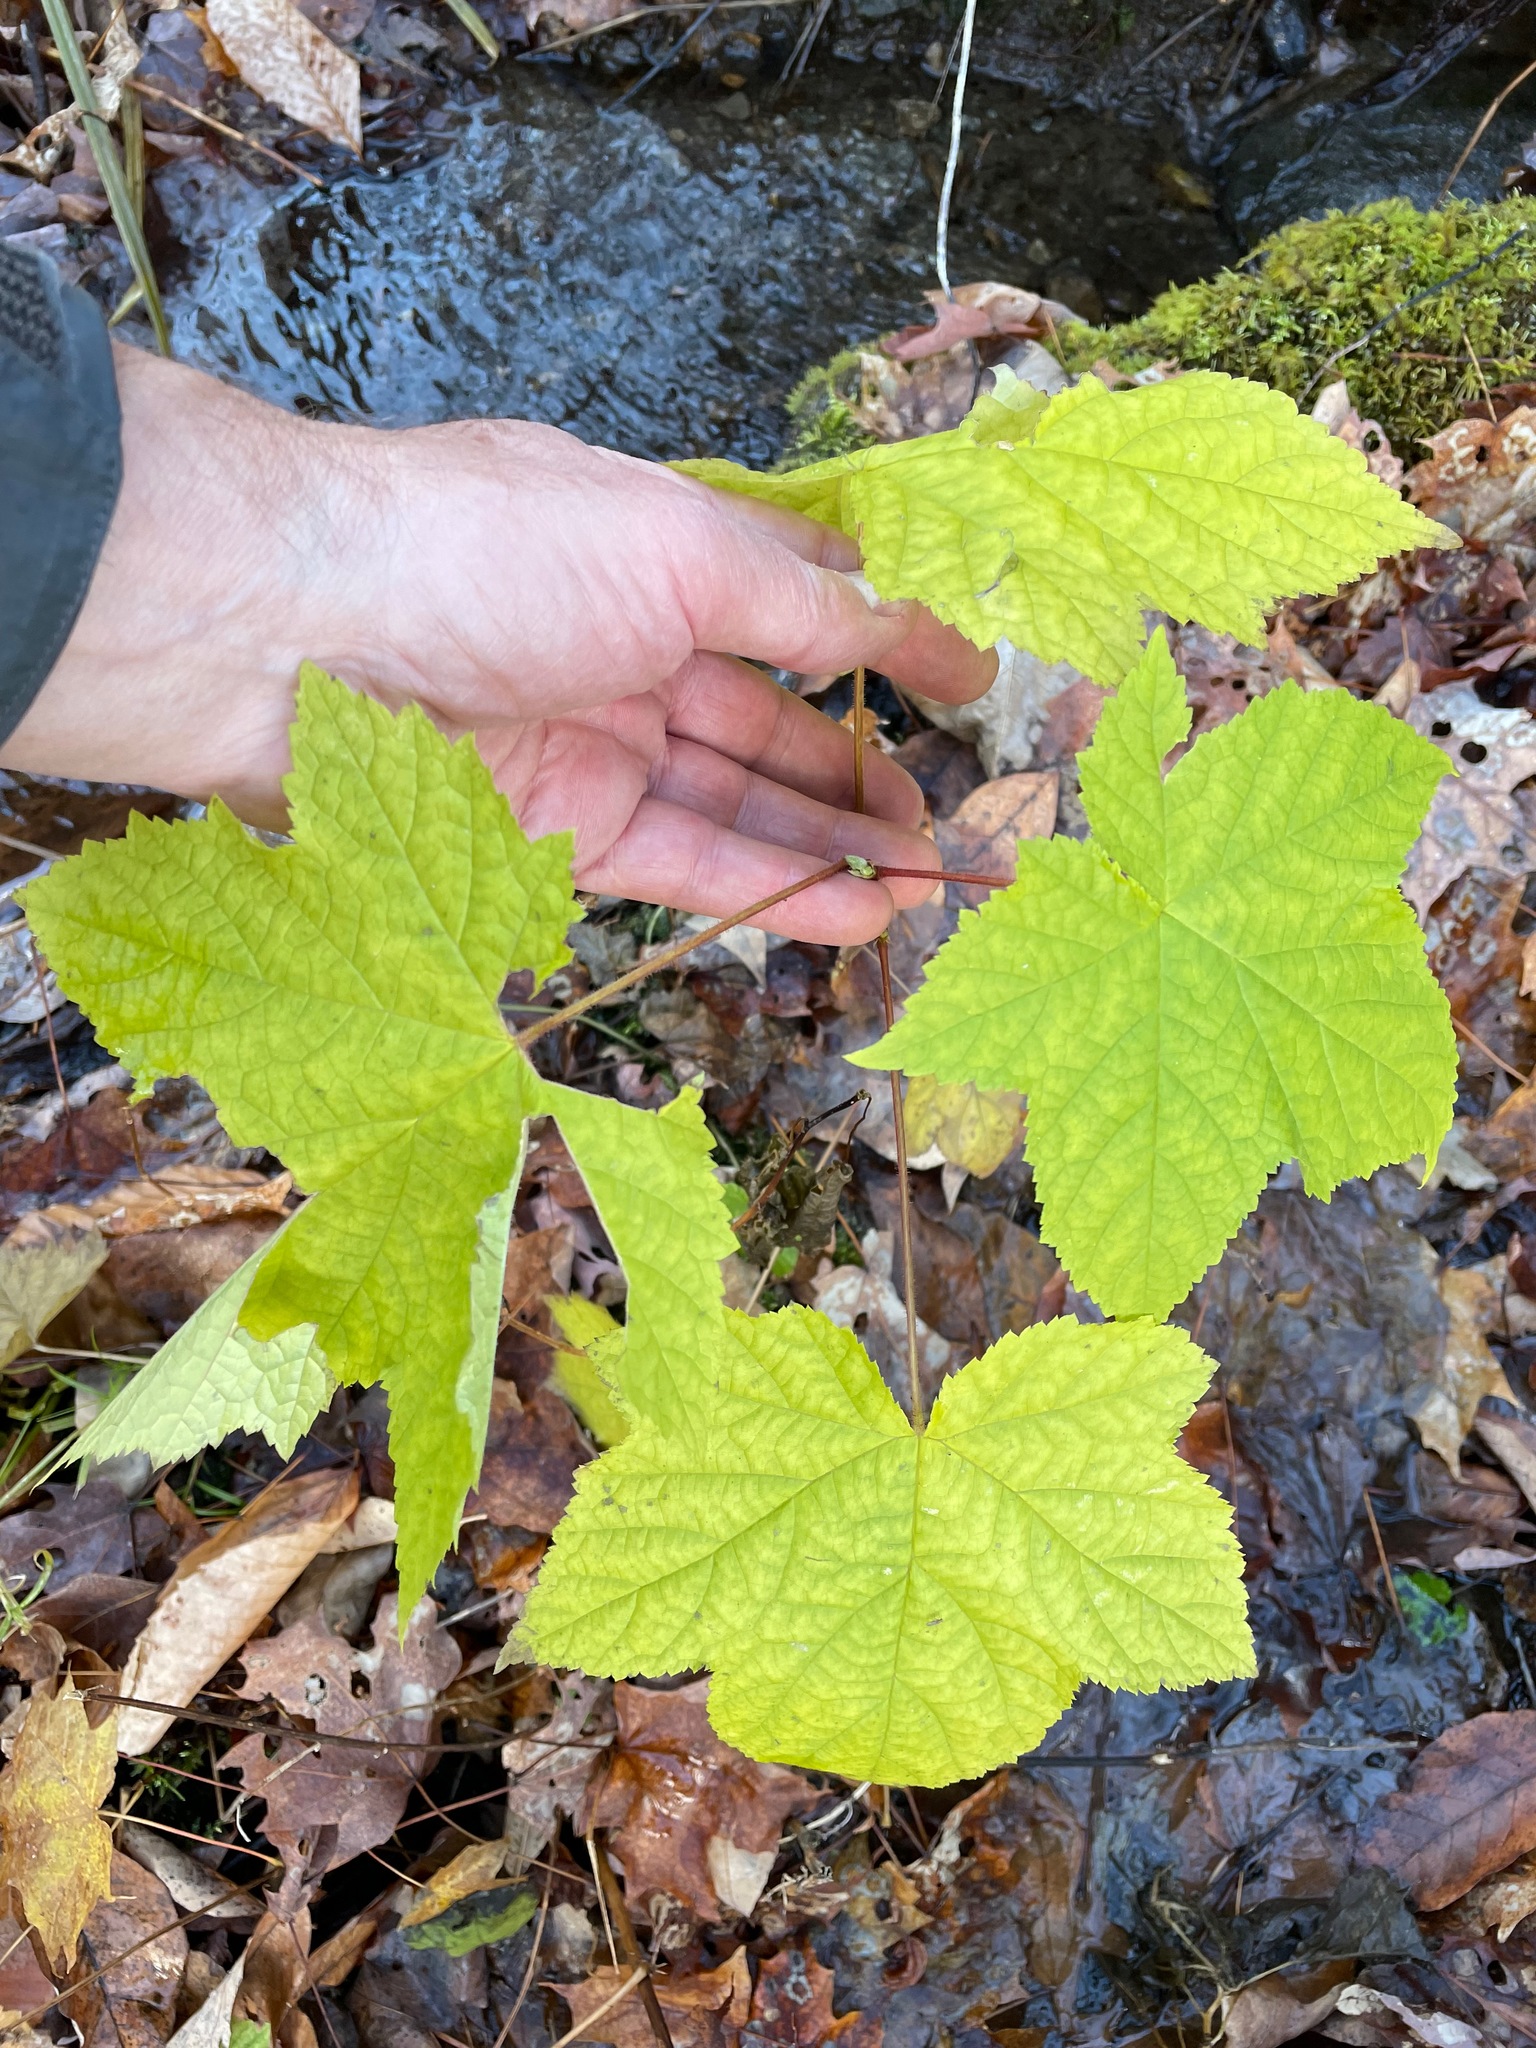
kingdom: Plantae
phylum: Tracheophyta
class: Magnoliopsida
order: Rosales
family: Rosaceae
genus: Rubus
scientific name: Rubus odoratus
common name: Purple-flowered raspberry
